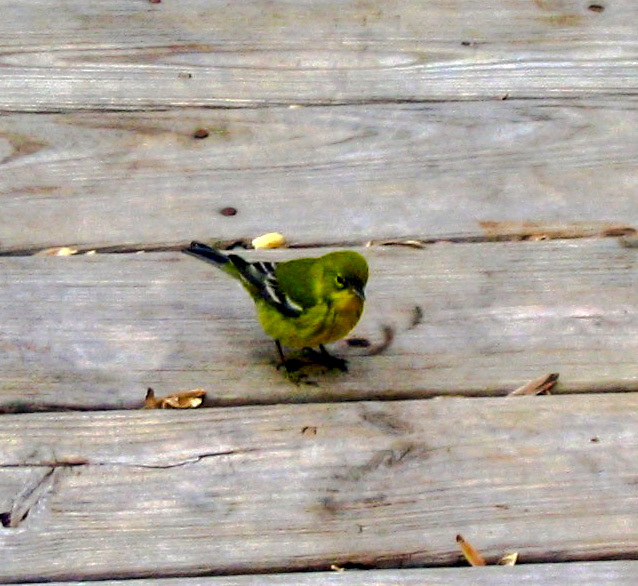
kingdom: Animalia
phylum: Chordata
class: Aves
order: Passeriformes
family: Parulidae
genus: Setophaga
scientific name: Setophaga pinus
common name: Pine warbler
